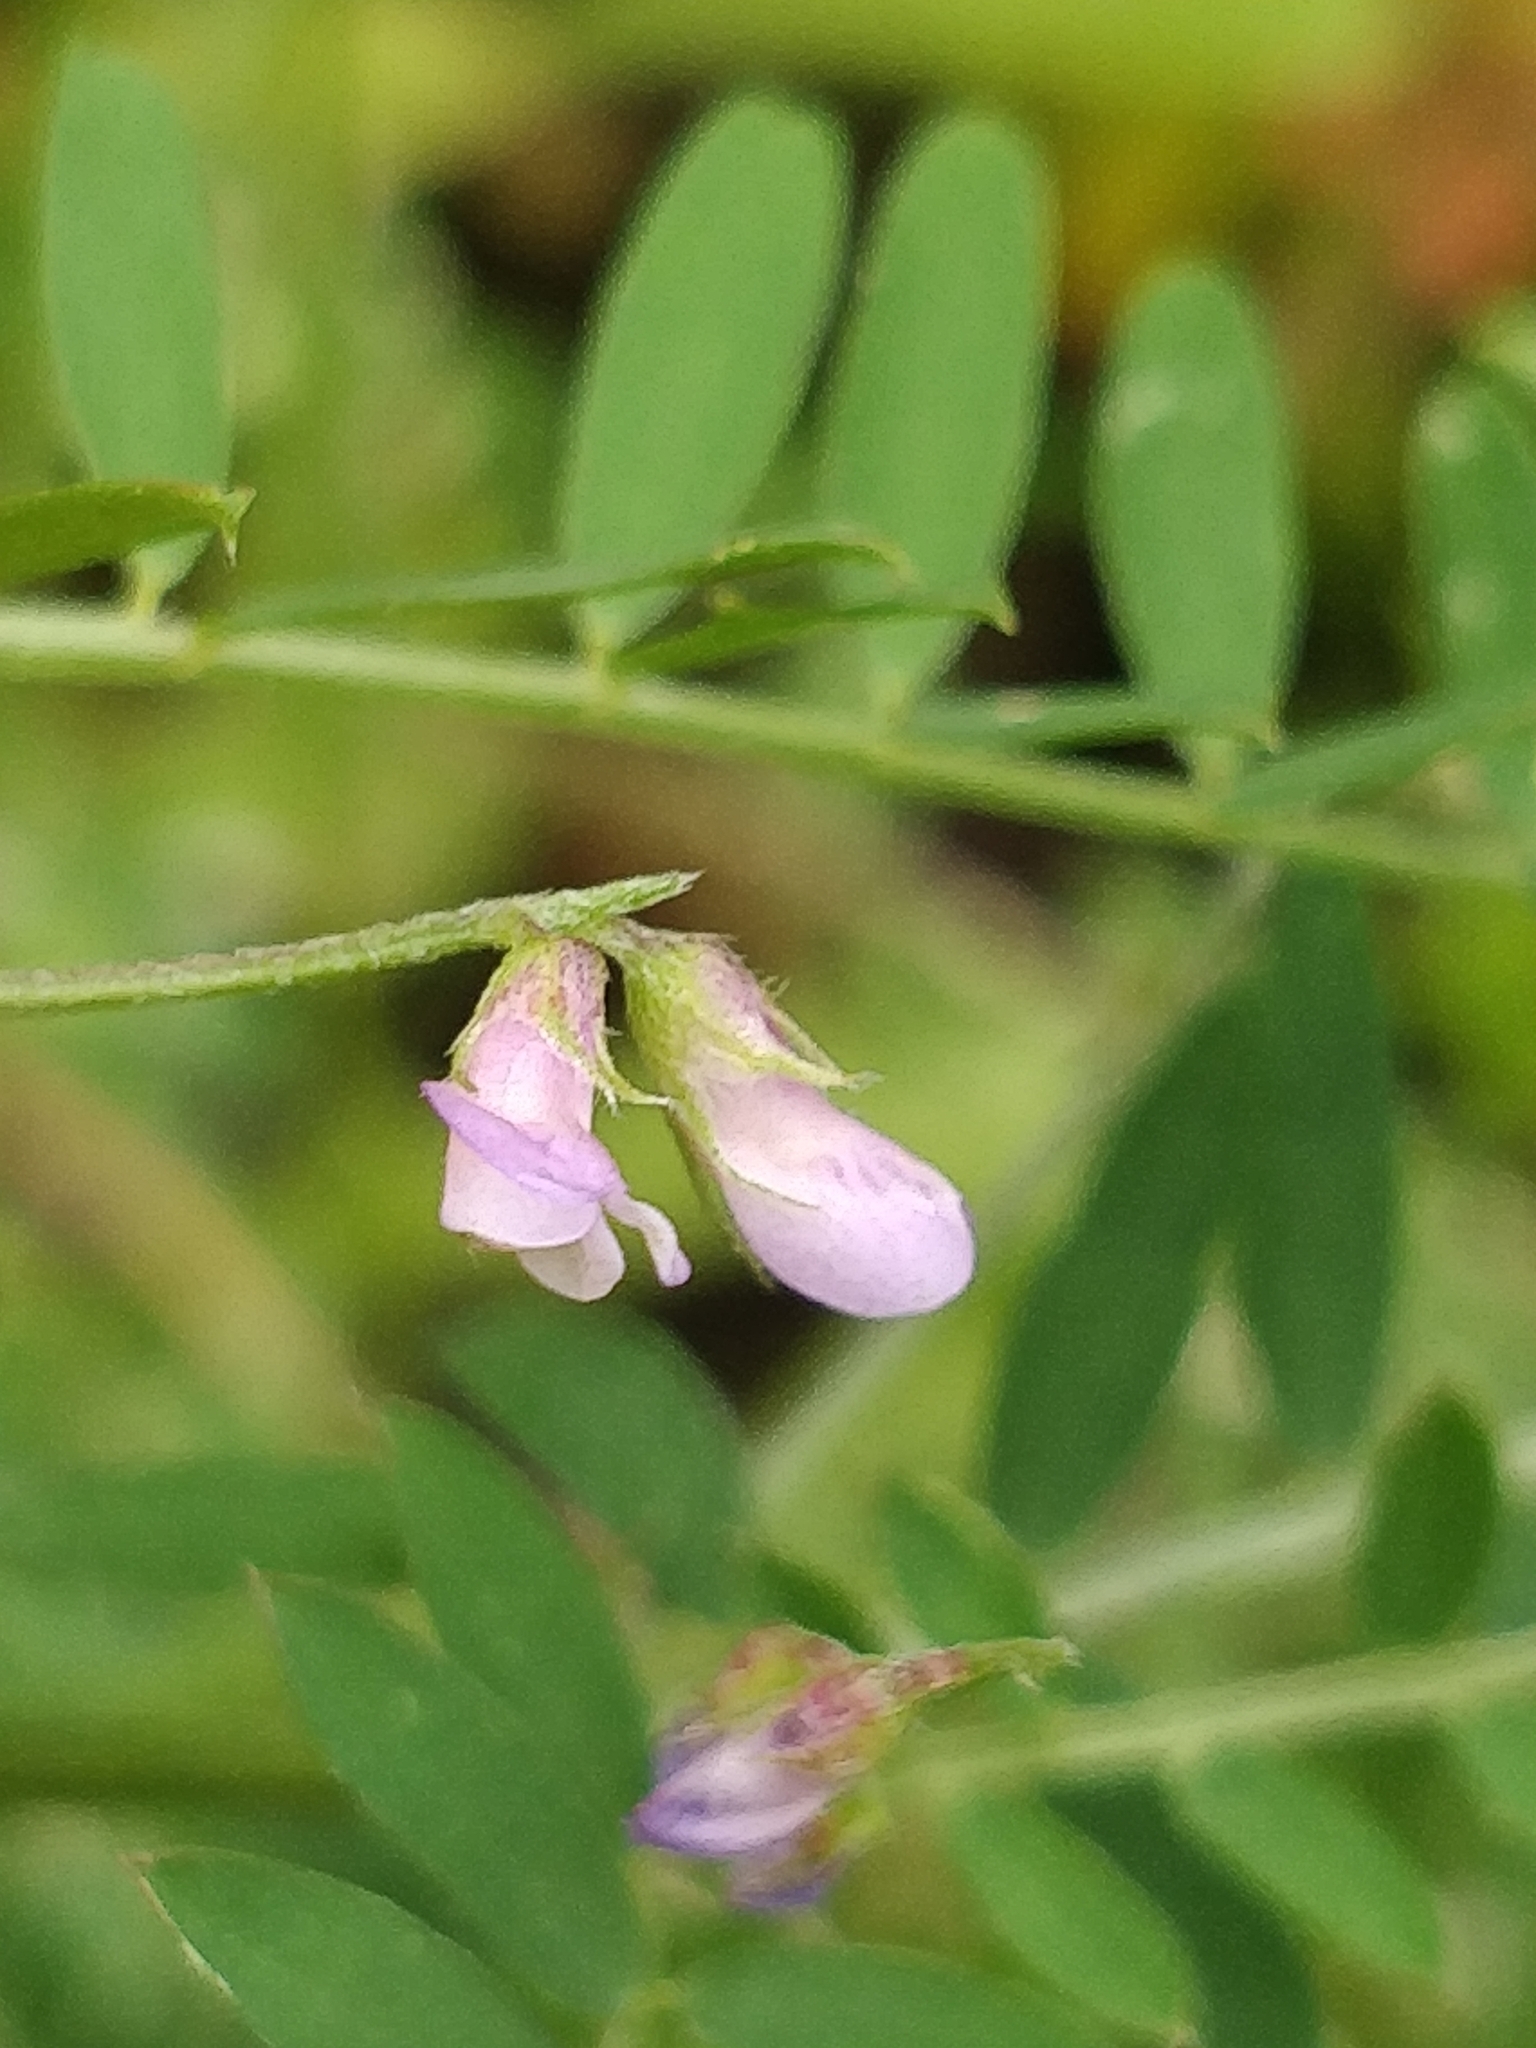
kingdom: Plantae
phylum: Tracheophyta
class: Magnoliopsida
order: Fabales
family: Fabaceae
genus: Vicia
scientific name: Vicia disperma
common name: European vetch
